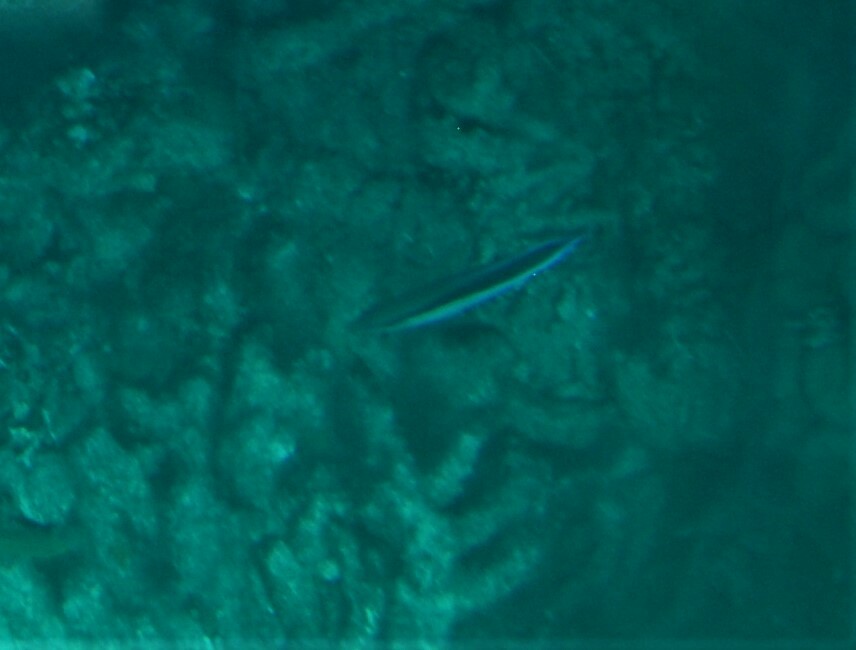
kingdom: Animalia
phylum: Chordata
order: Perciformes
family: Labridae
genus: Labroides
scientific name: Labroides dimidiatus
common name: Blue diesel wrasse
